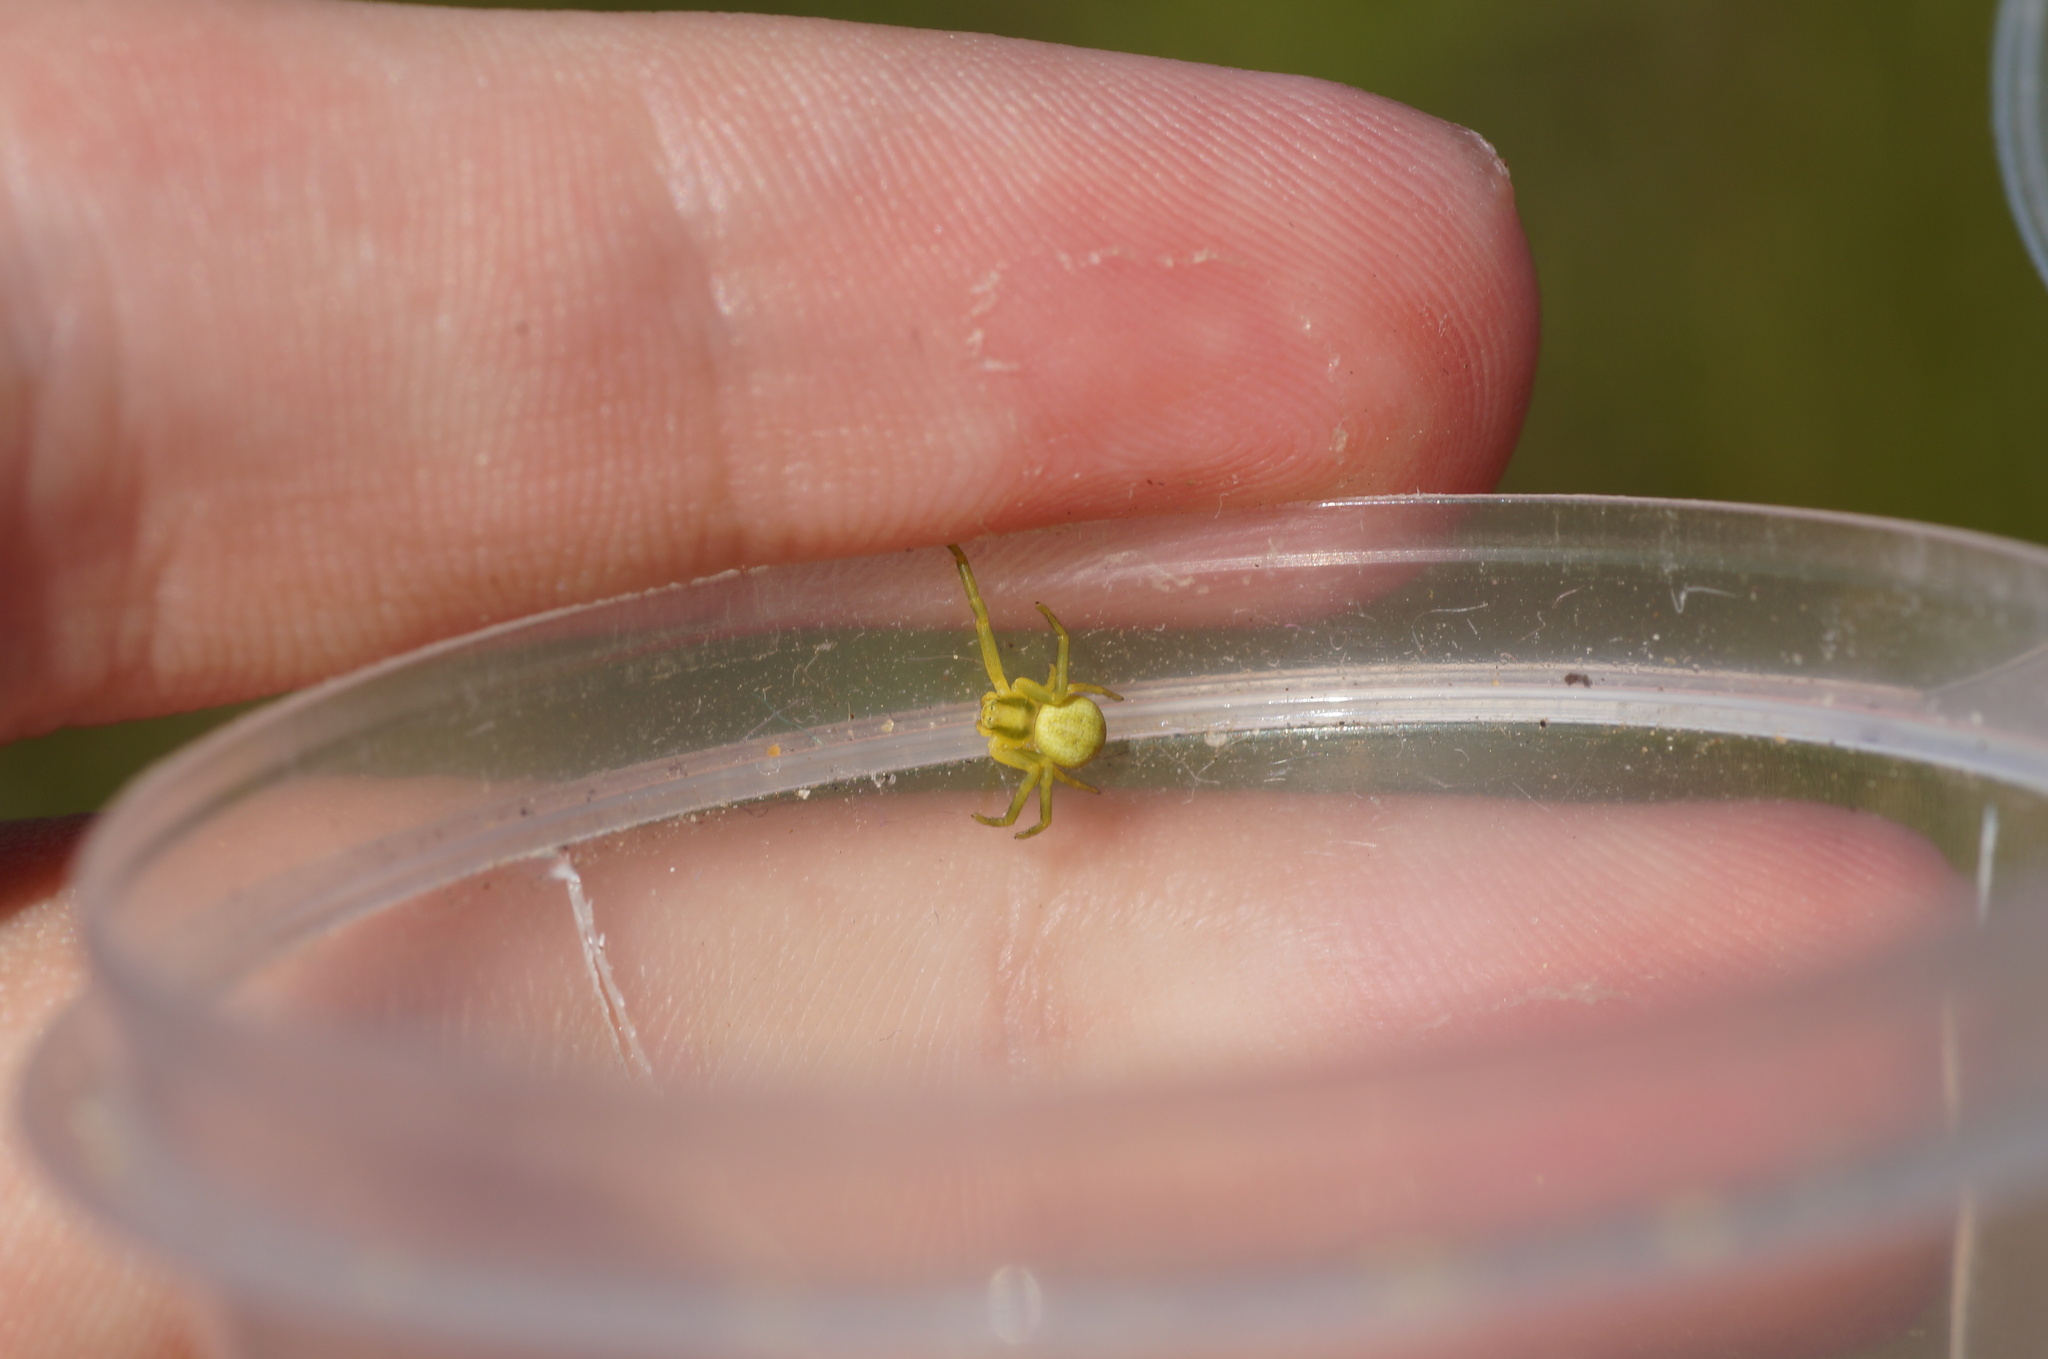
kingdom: Animalia
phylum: Arthropoda
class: Arachnida
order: Araneae
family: Thomisidae
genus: Misumena
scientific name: Misumena vatia
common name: Goldenrod crab spider
